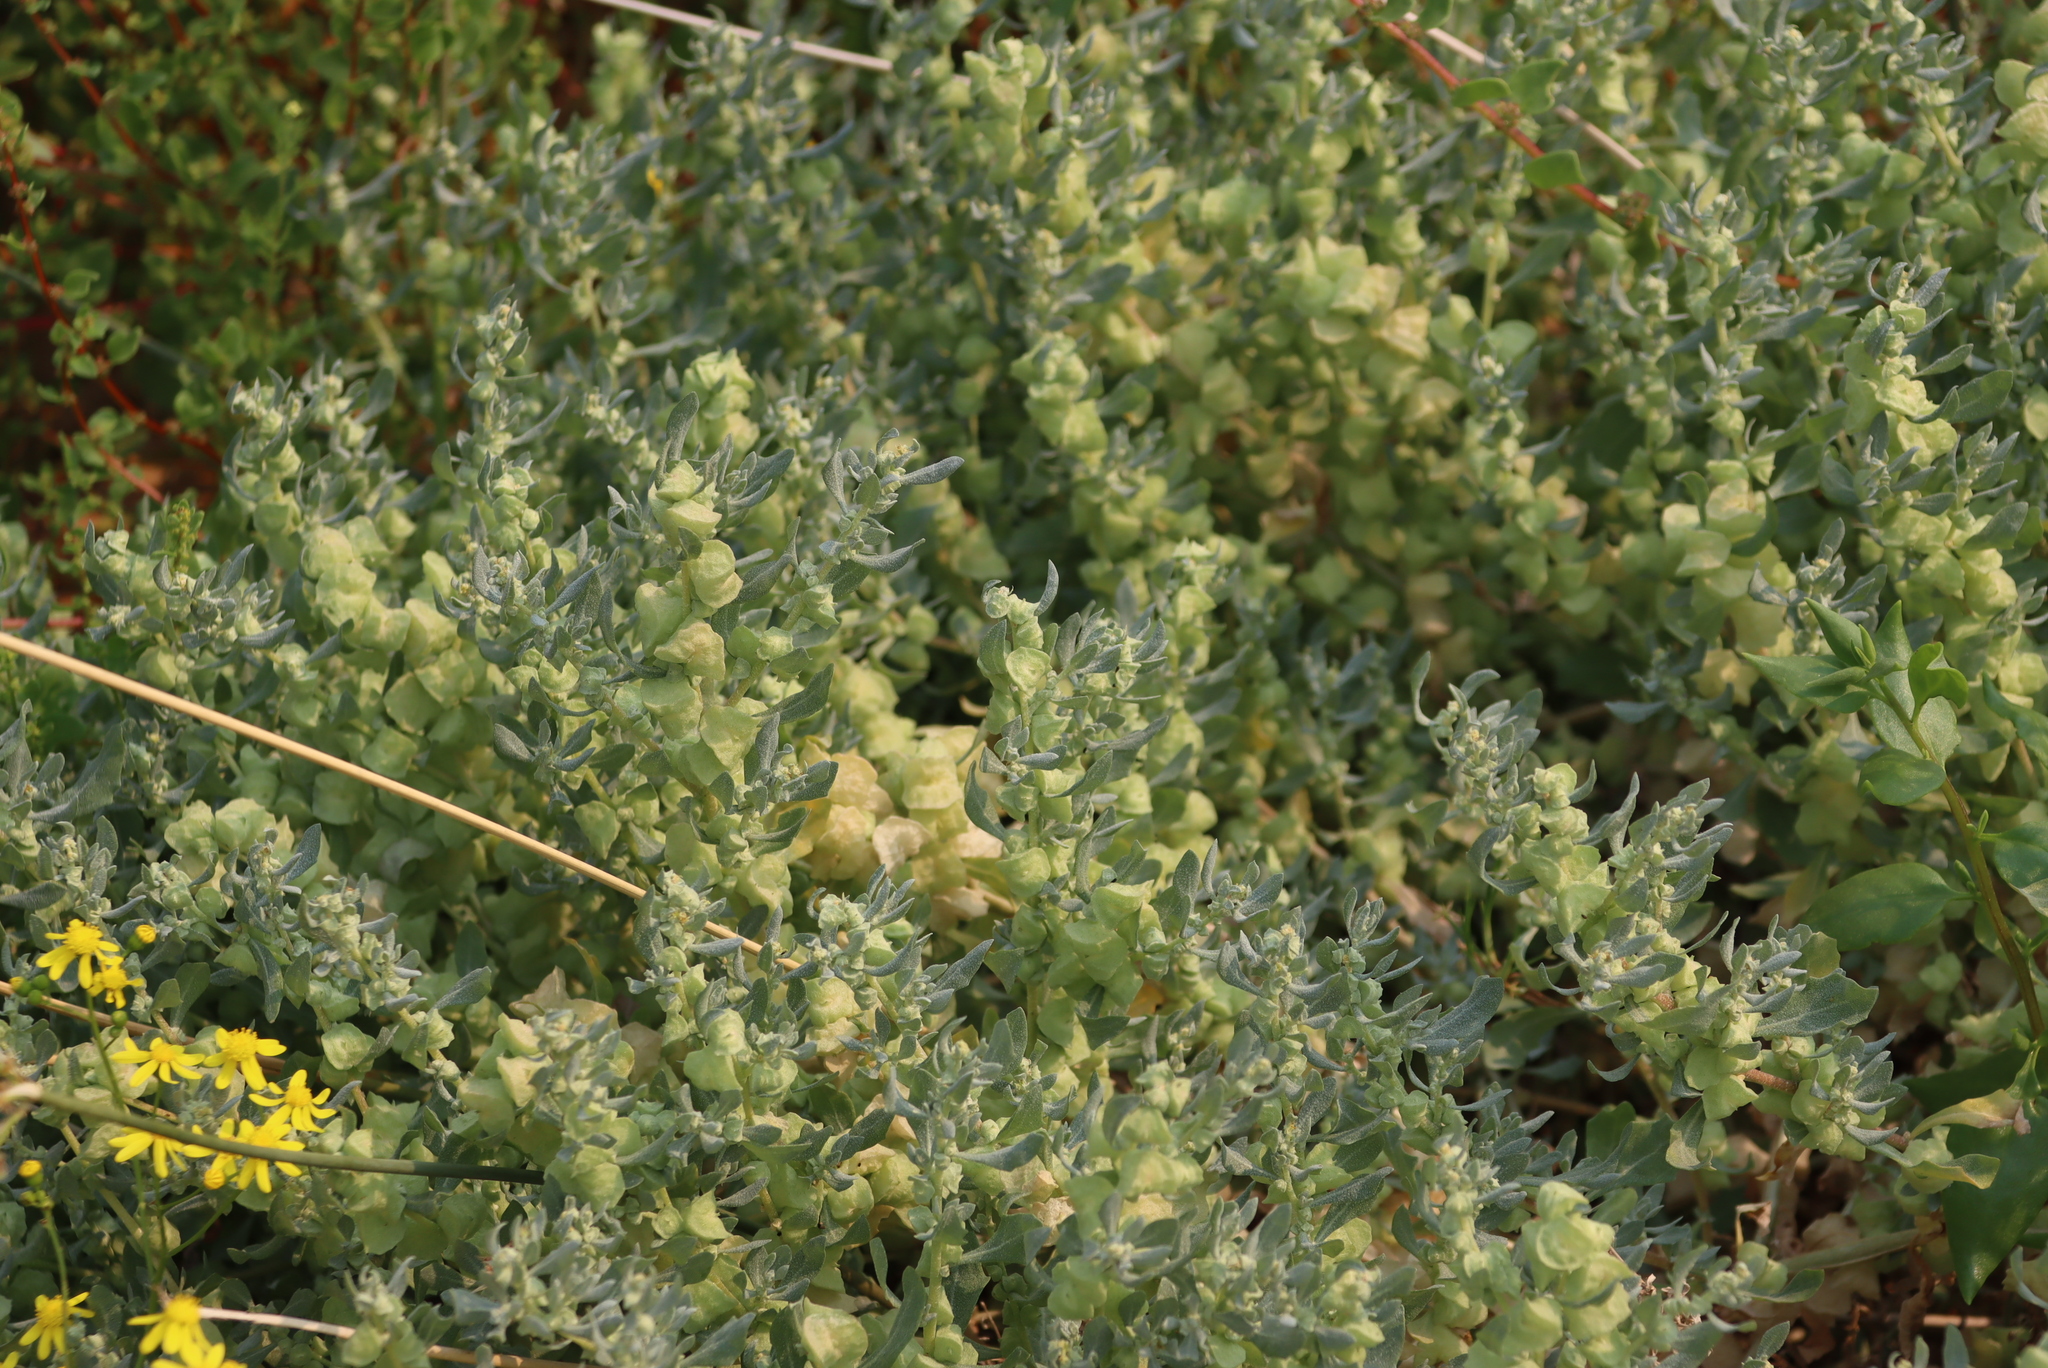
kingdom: Plantae
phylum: Tracheophyta
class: Magnoliopsida
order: Caryophyllales
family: Amaranthaceae
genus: Atriplex
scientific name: Atriplex lindleyi
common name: Lindley's saltbush
